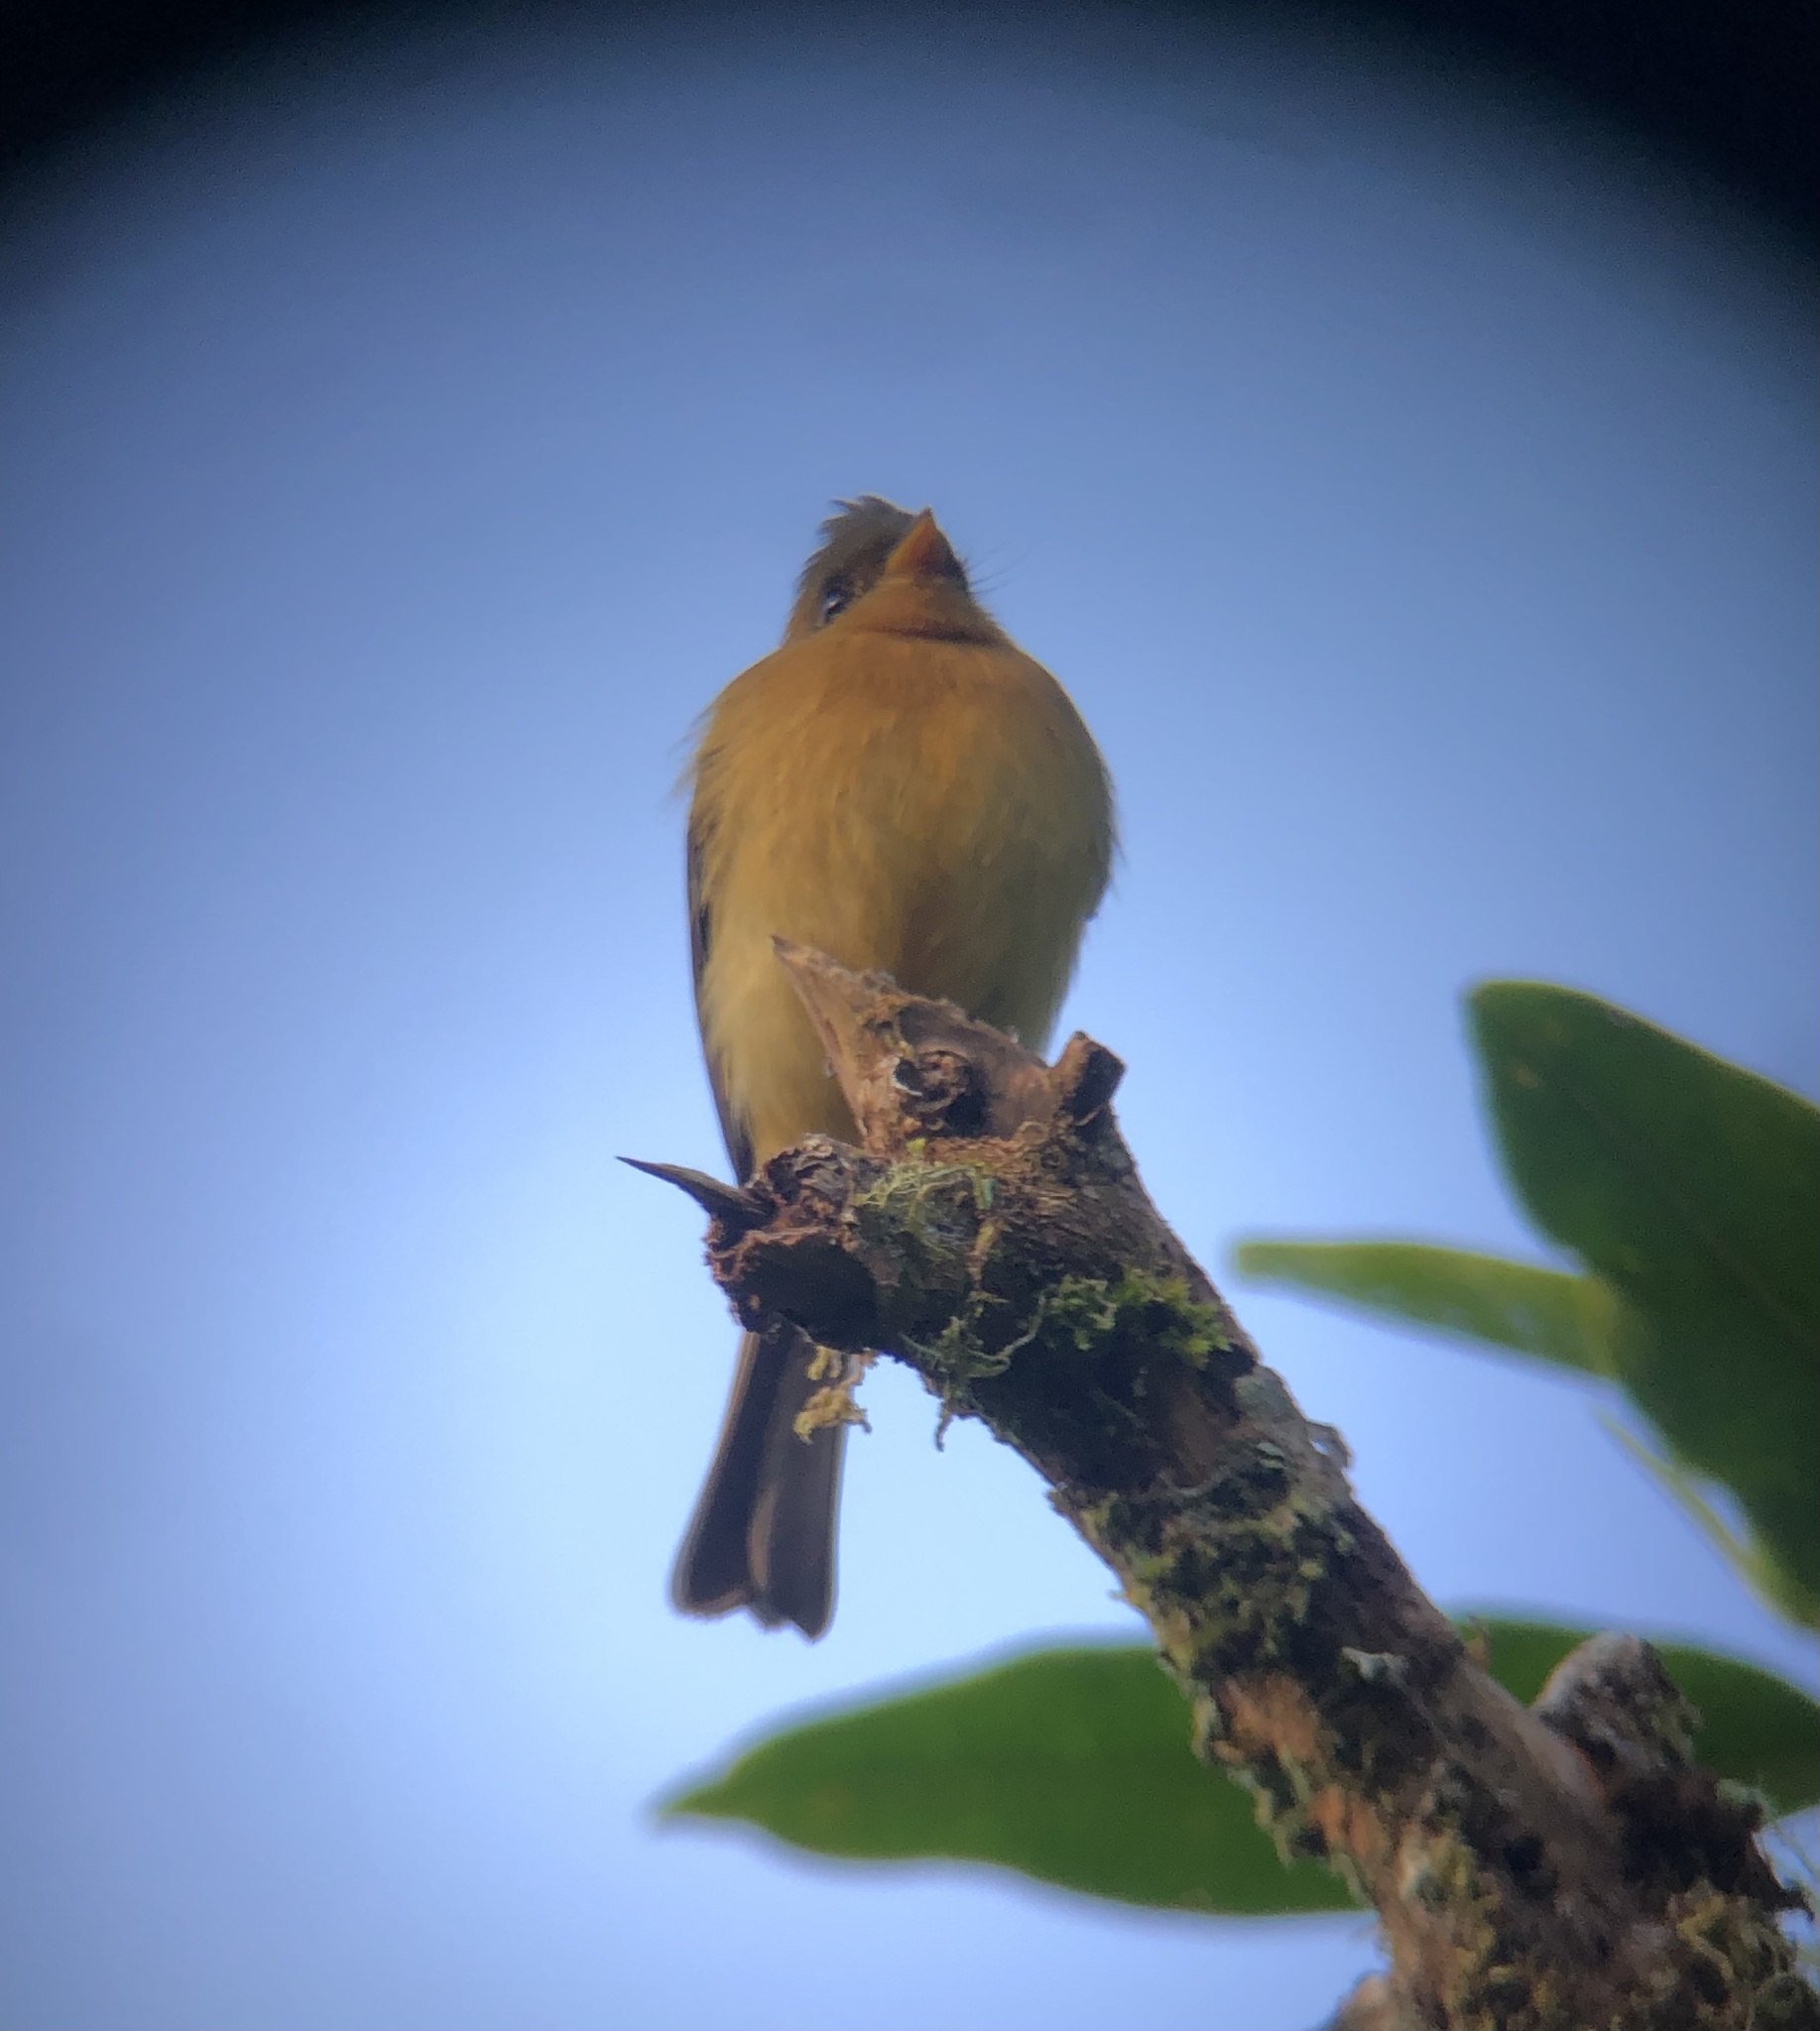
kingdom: Animalia
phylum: Chordata
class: Aves
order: Passeriformes
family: Tyrannidae
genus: Mitrephanes
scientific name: Mitrephanes phaeocercus
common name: Northern tufted flycatcher
